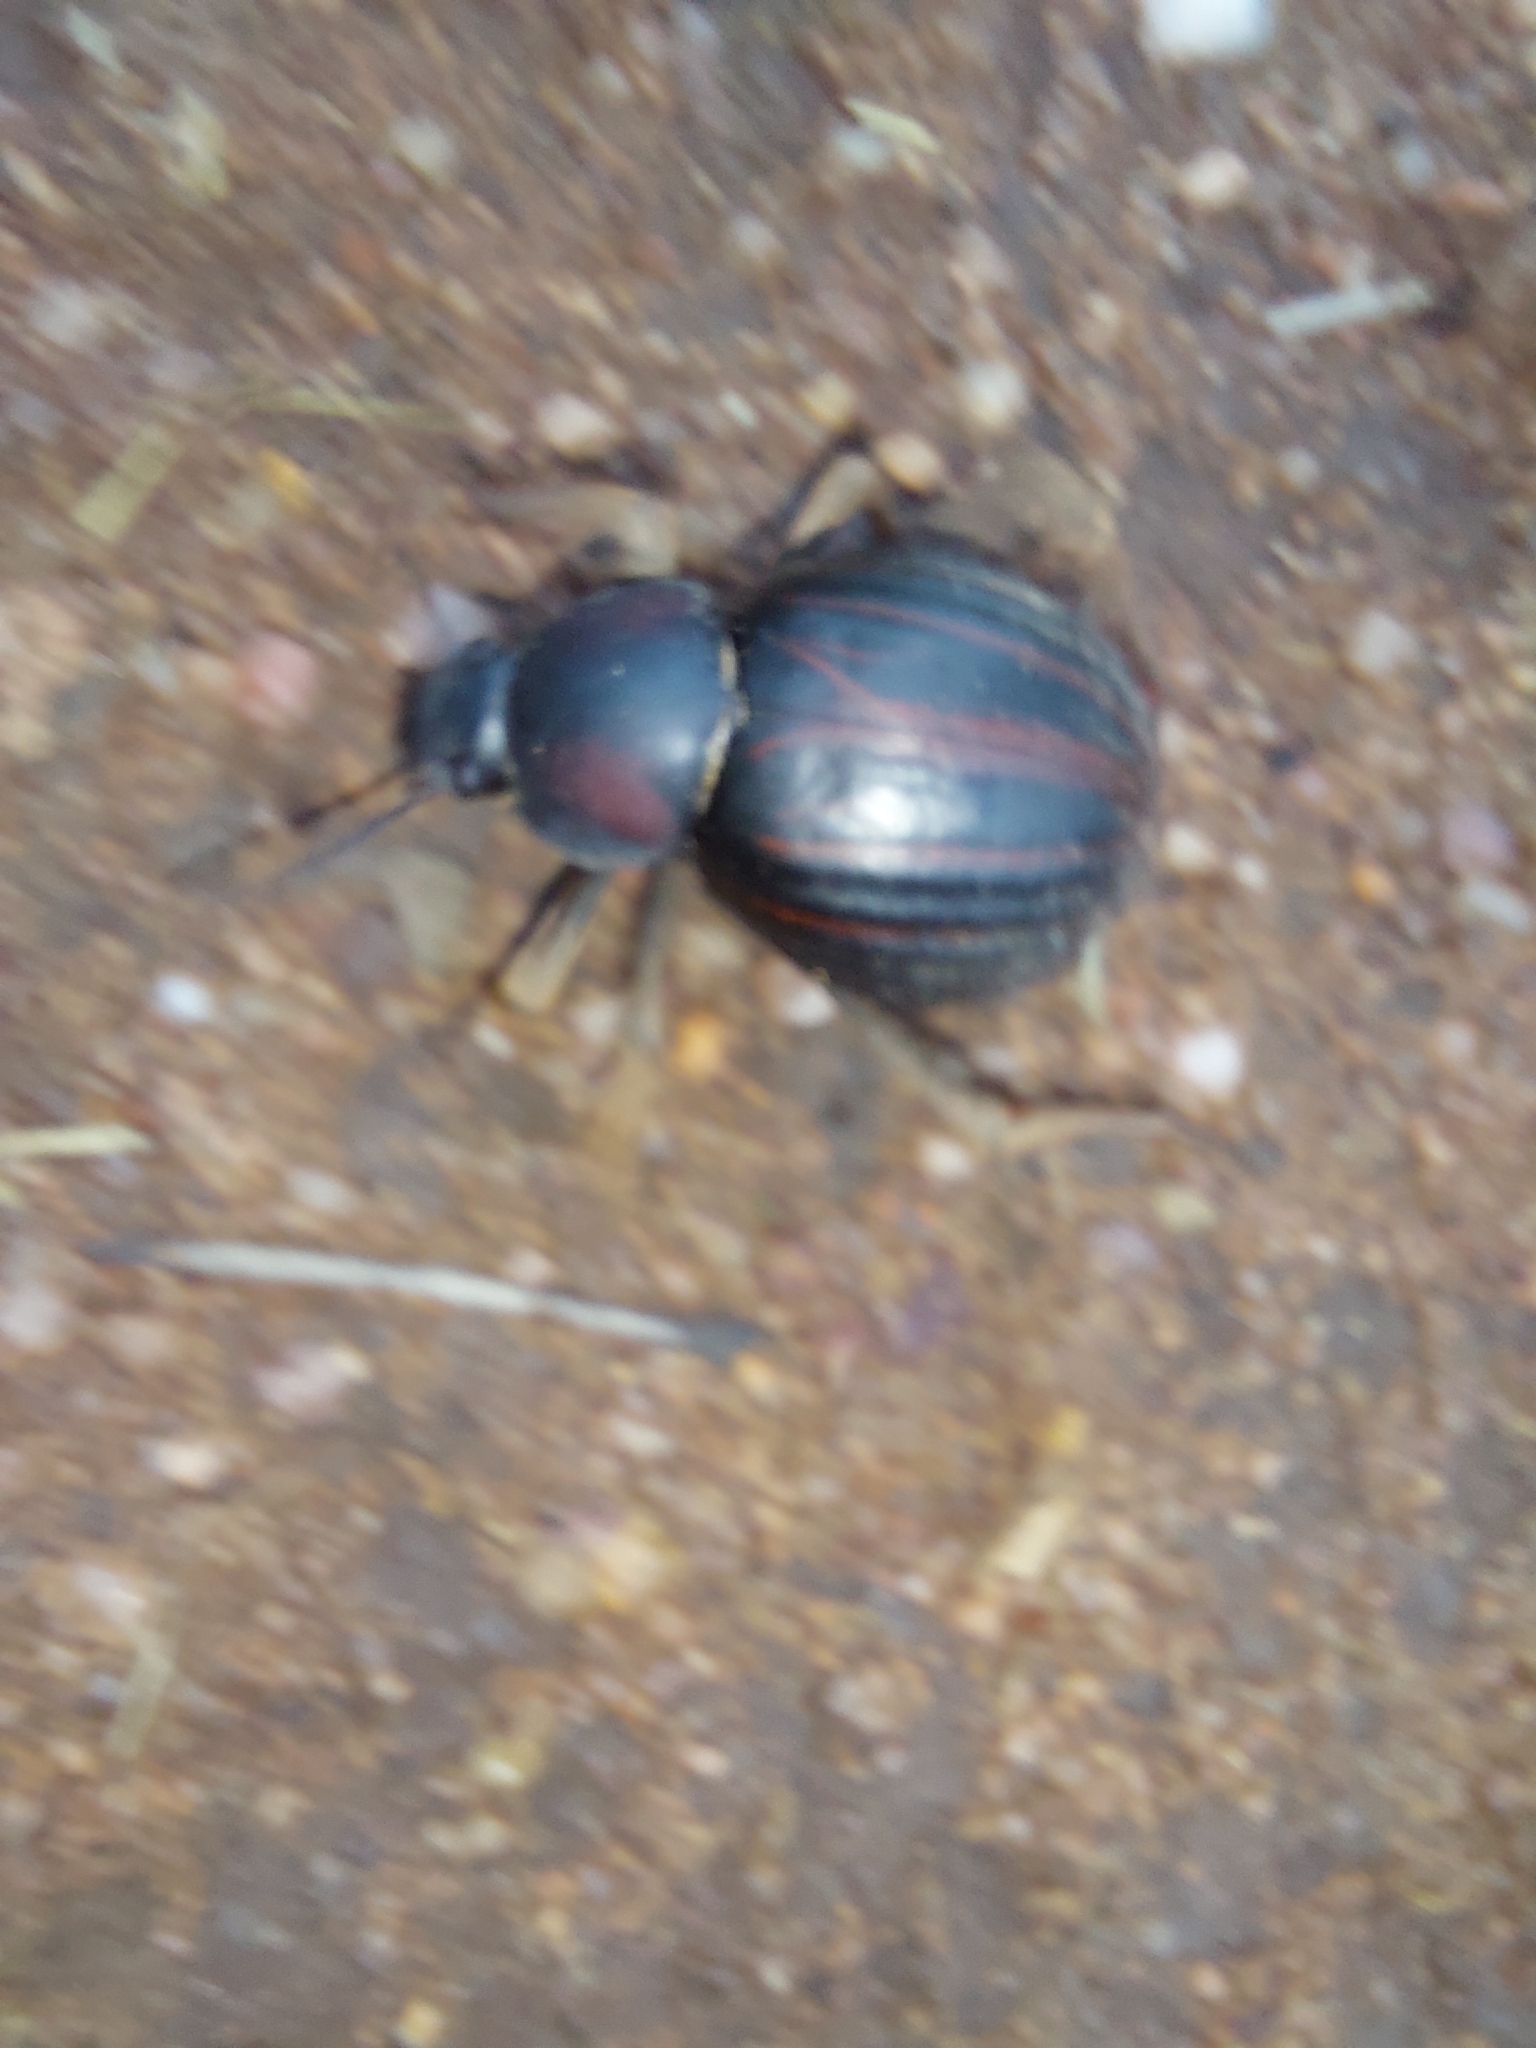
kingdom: Animalia
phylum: Arthropoda
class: Insecta
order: Coleoptera
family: Tenebrionidae
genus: Mariazofia
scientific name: Mariazofia
